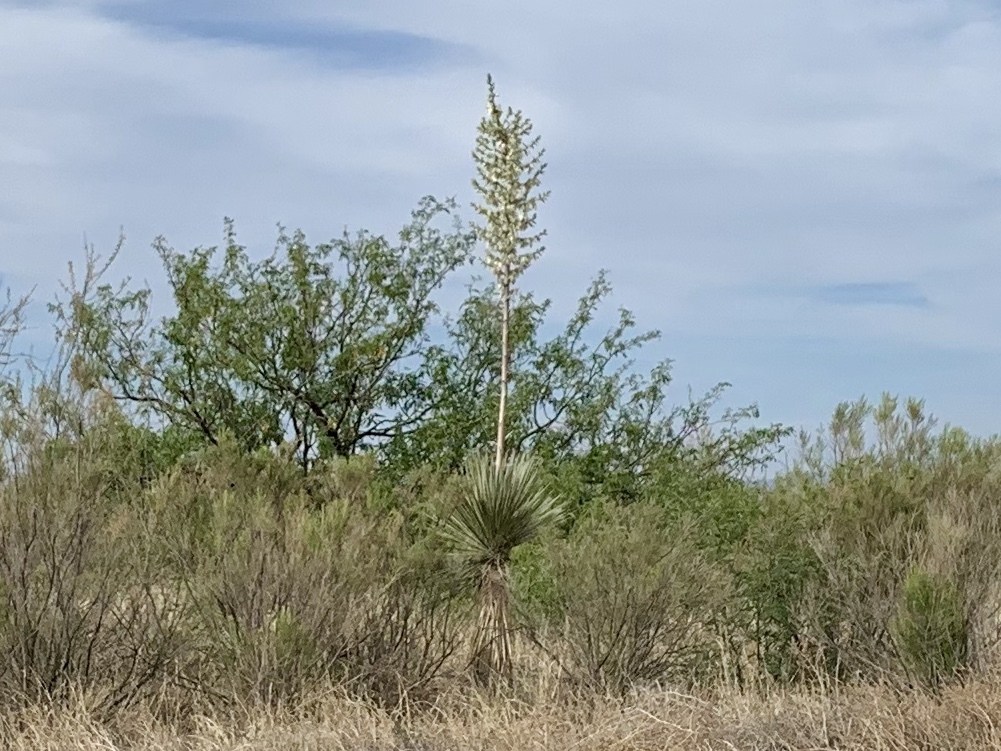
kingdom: Plantae
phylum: Tracheophyta
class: Liliopsida
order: Asparagales
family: Asparagaceae
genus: Yucca
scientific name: Yucca elata
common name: Palmella
